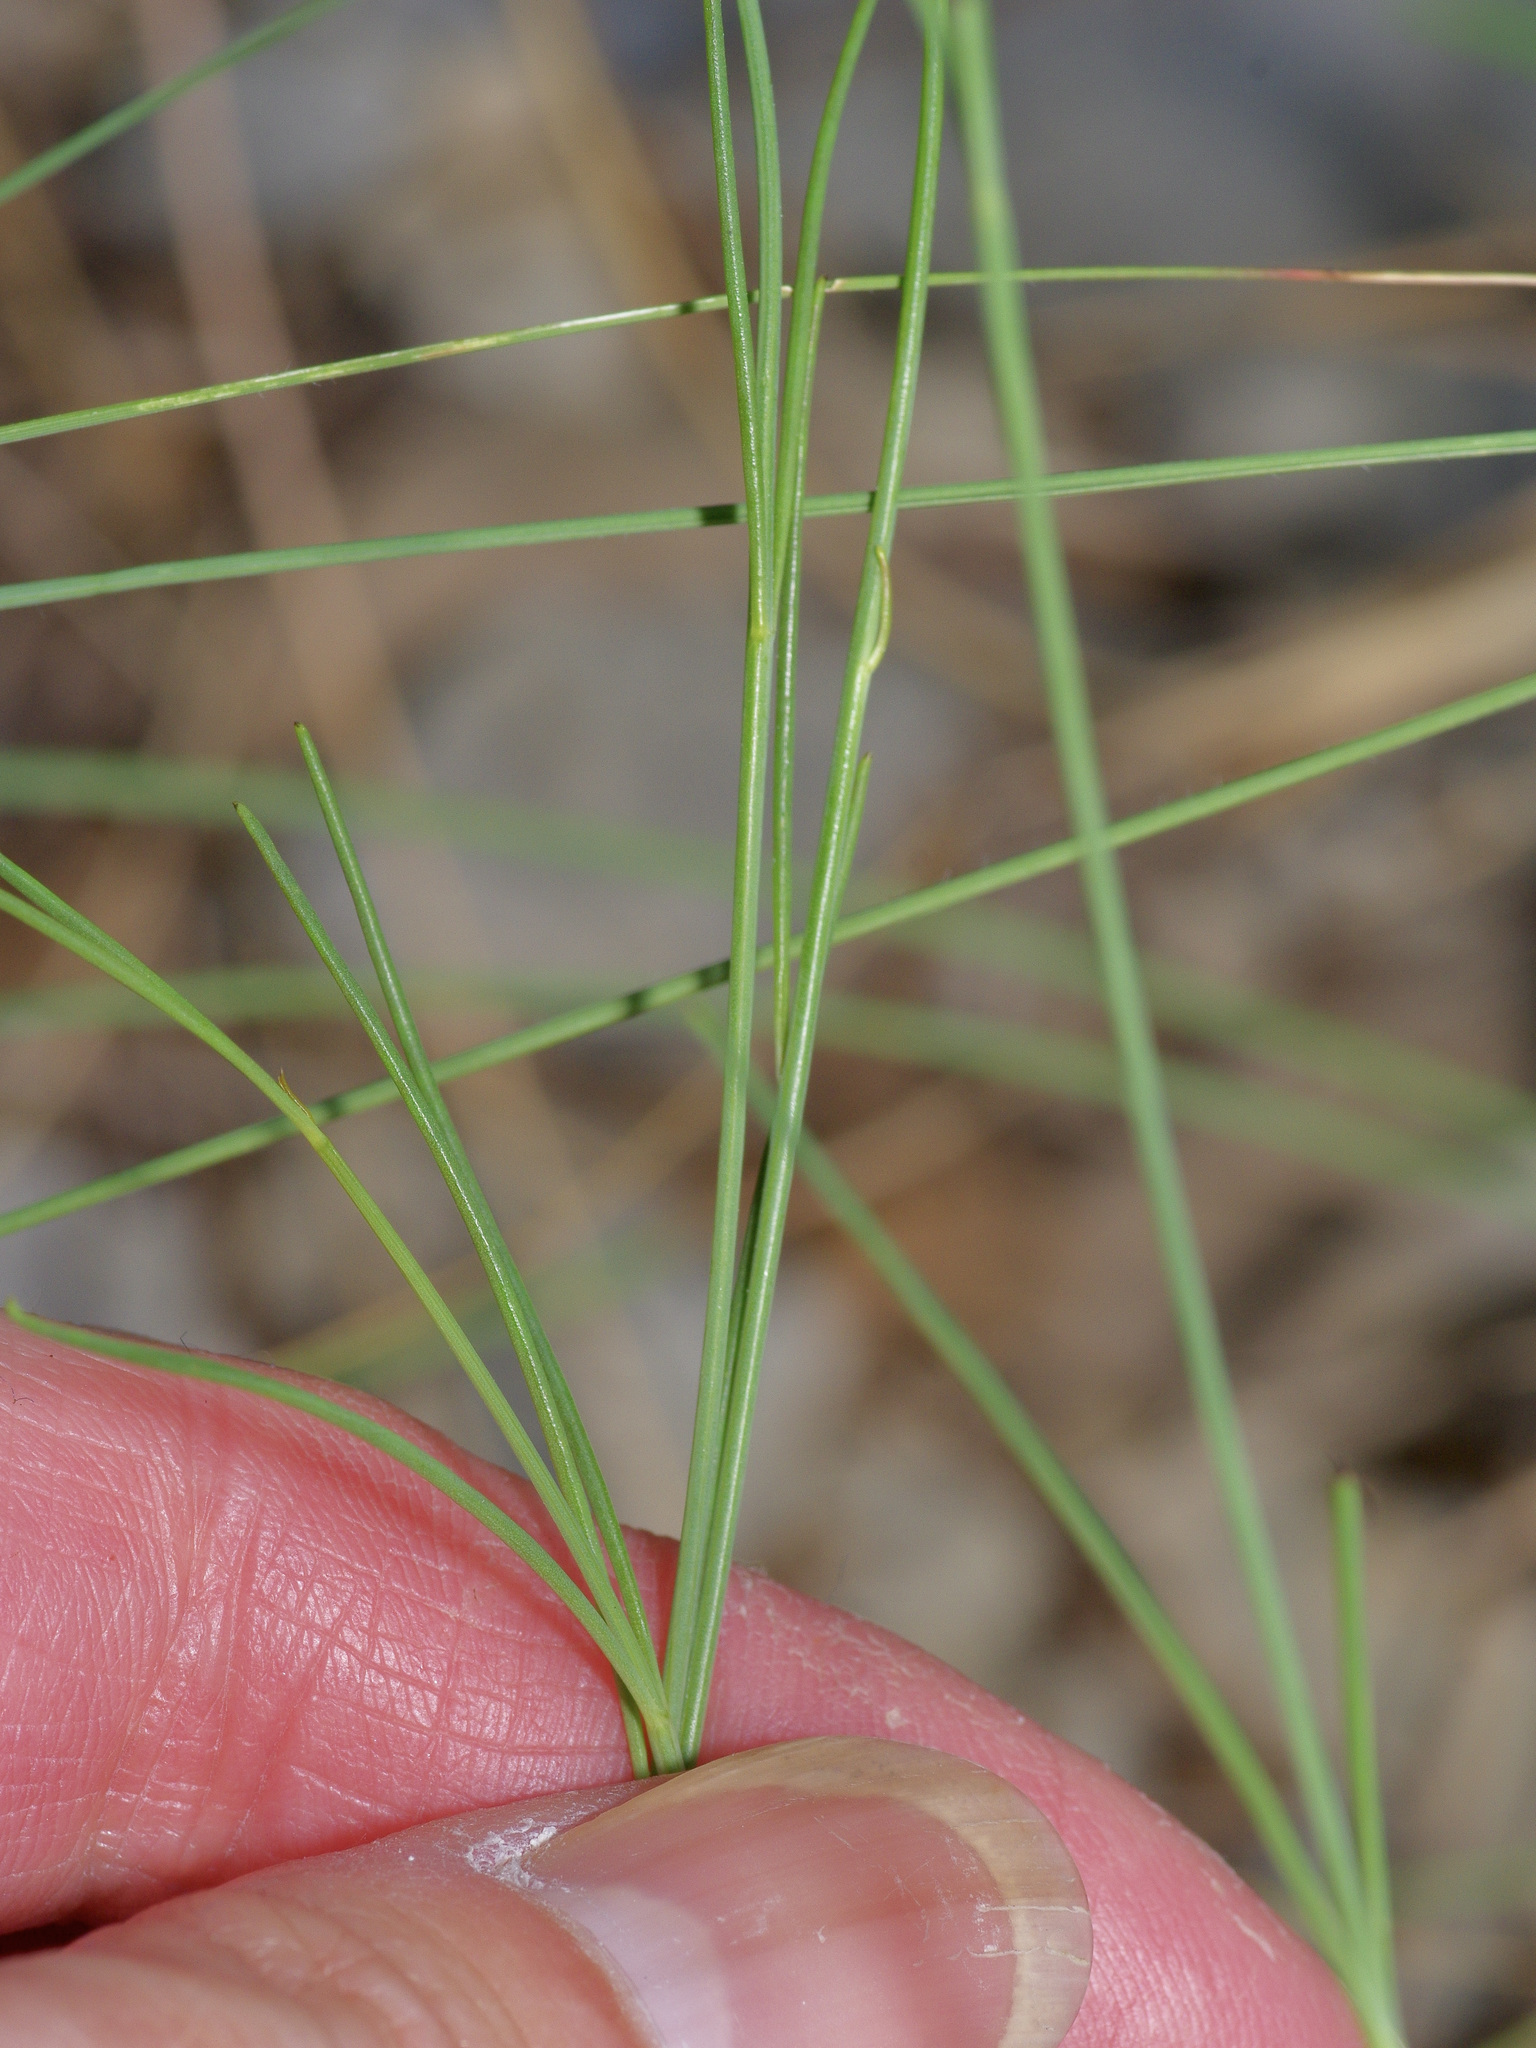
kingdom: Plantae
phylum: Tracheophyta
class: Magnoliopsida
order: Asterales
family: Asteraceae
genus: Thelesperma
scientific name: Thelesperma simplicifolium
